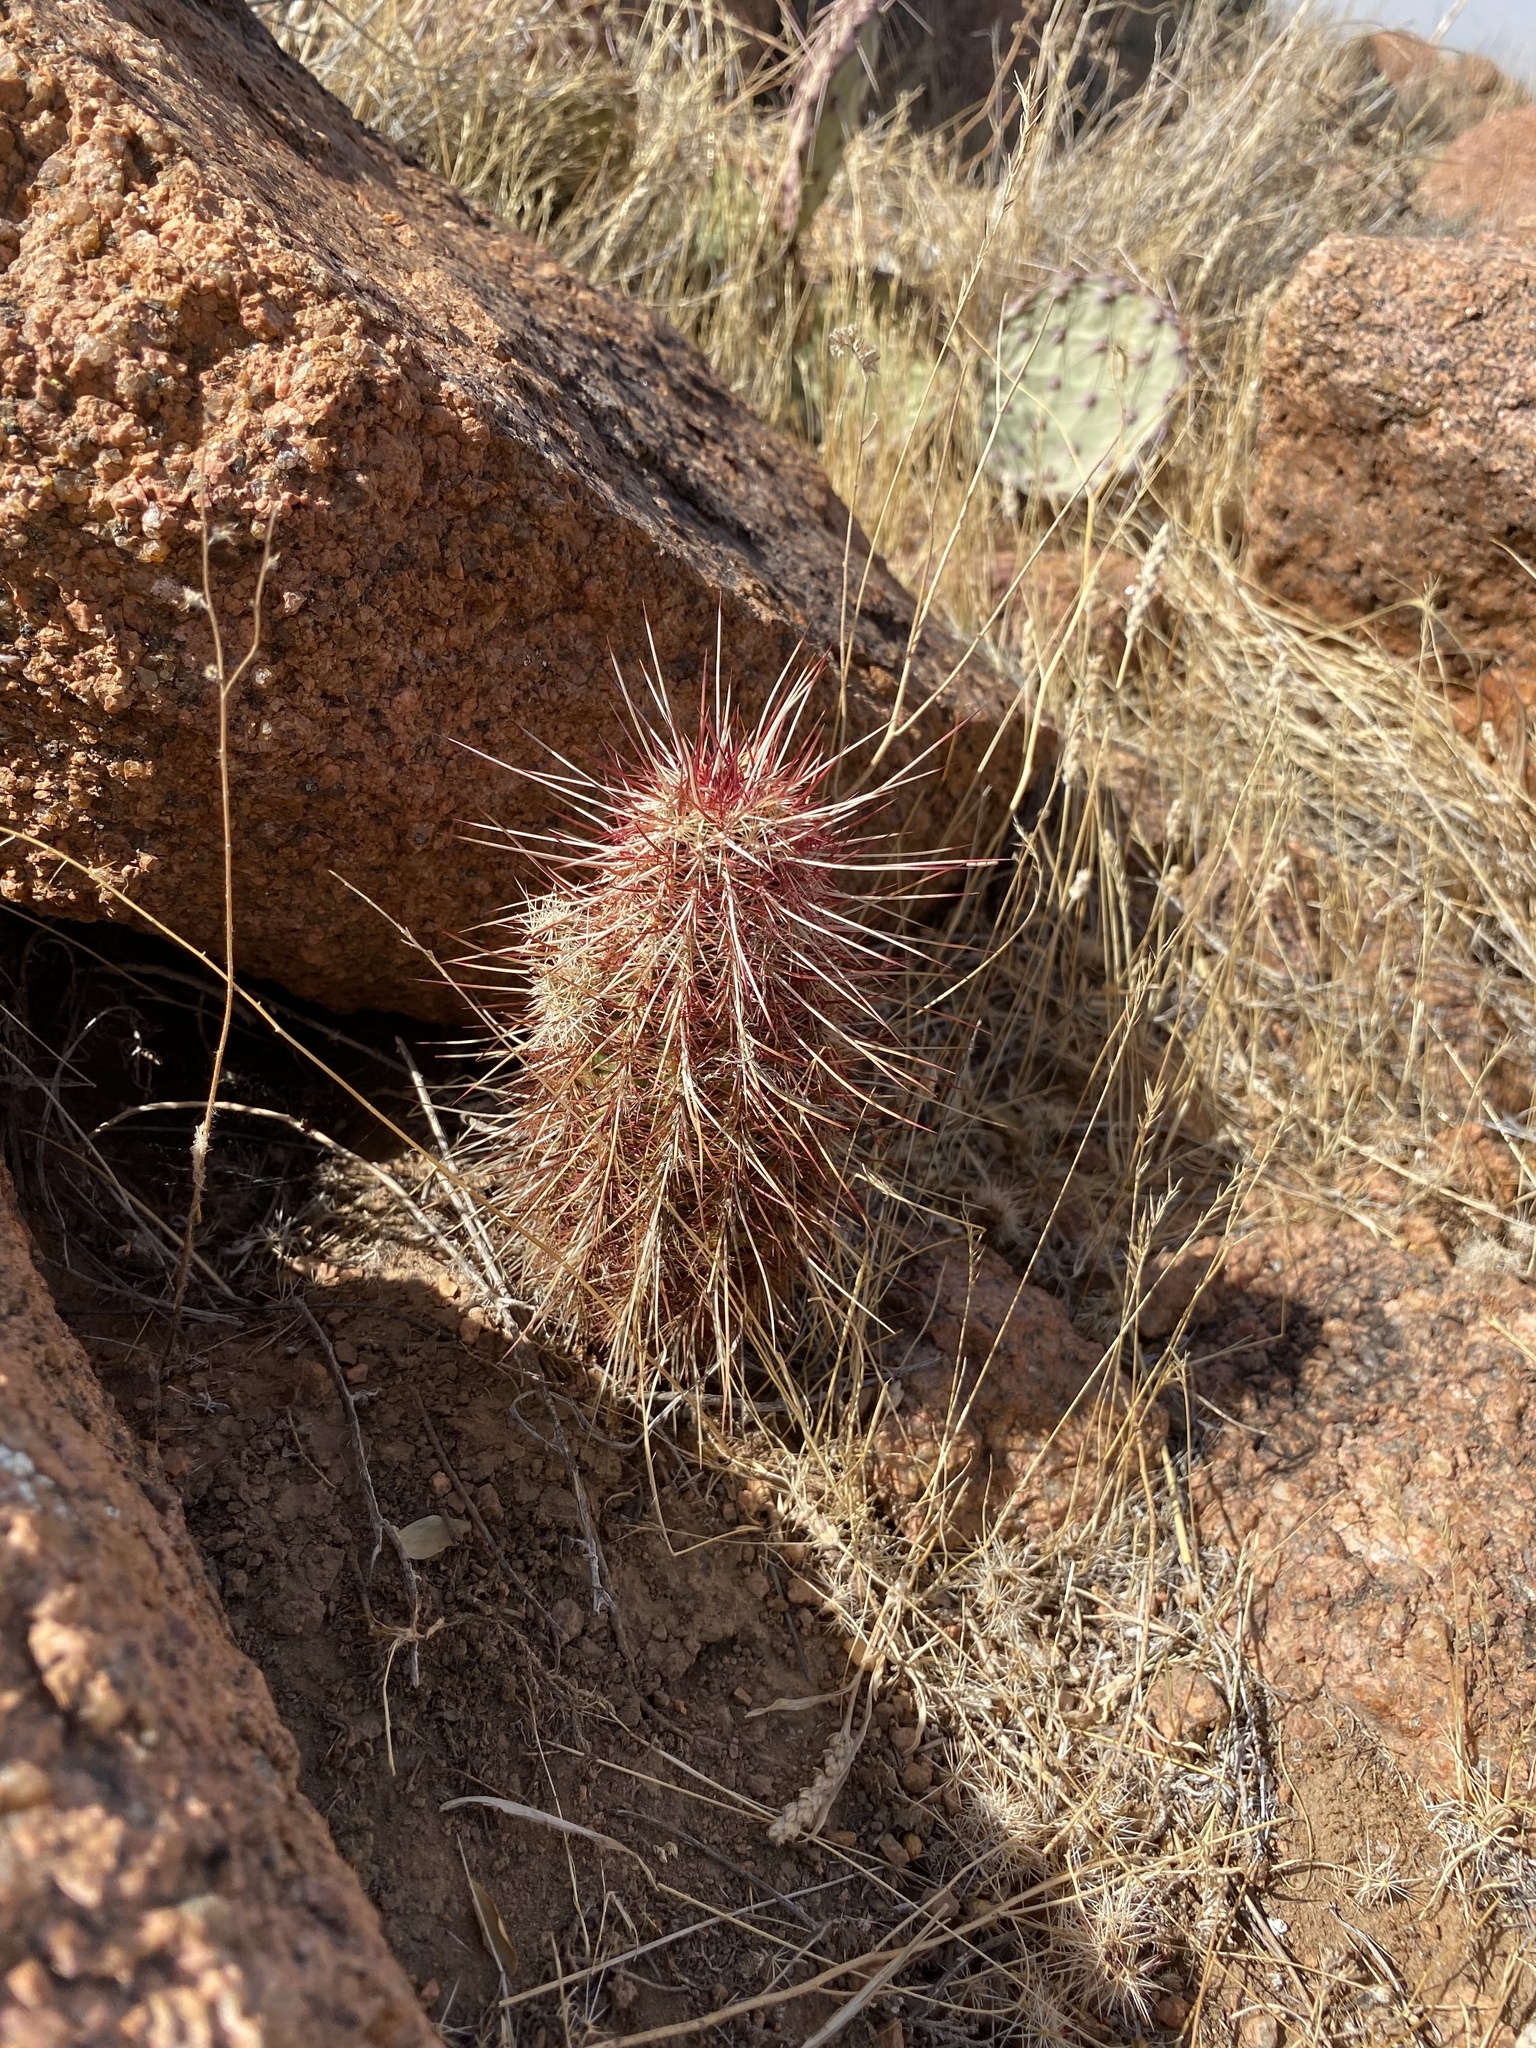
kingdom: Plantae
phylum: Tracheophyta
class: Magnoliopsida
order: Caryophyllales
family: Cactaceae
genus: Echinocereus
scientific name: Echinocereus viridiflorus
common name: Nylon hedgehog cactus
